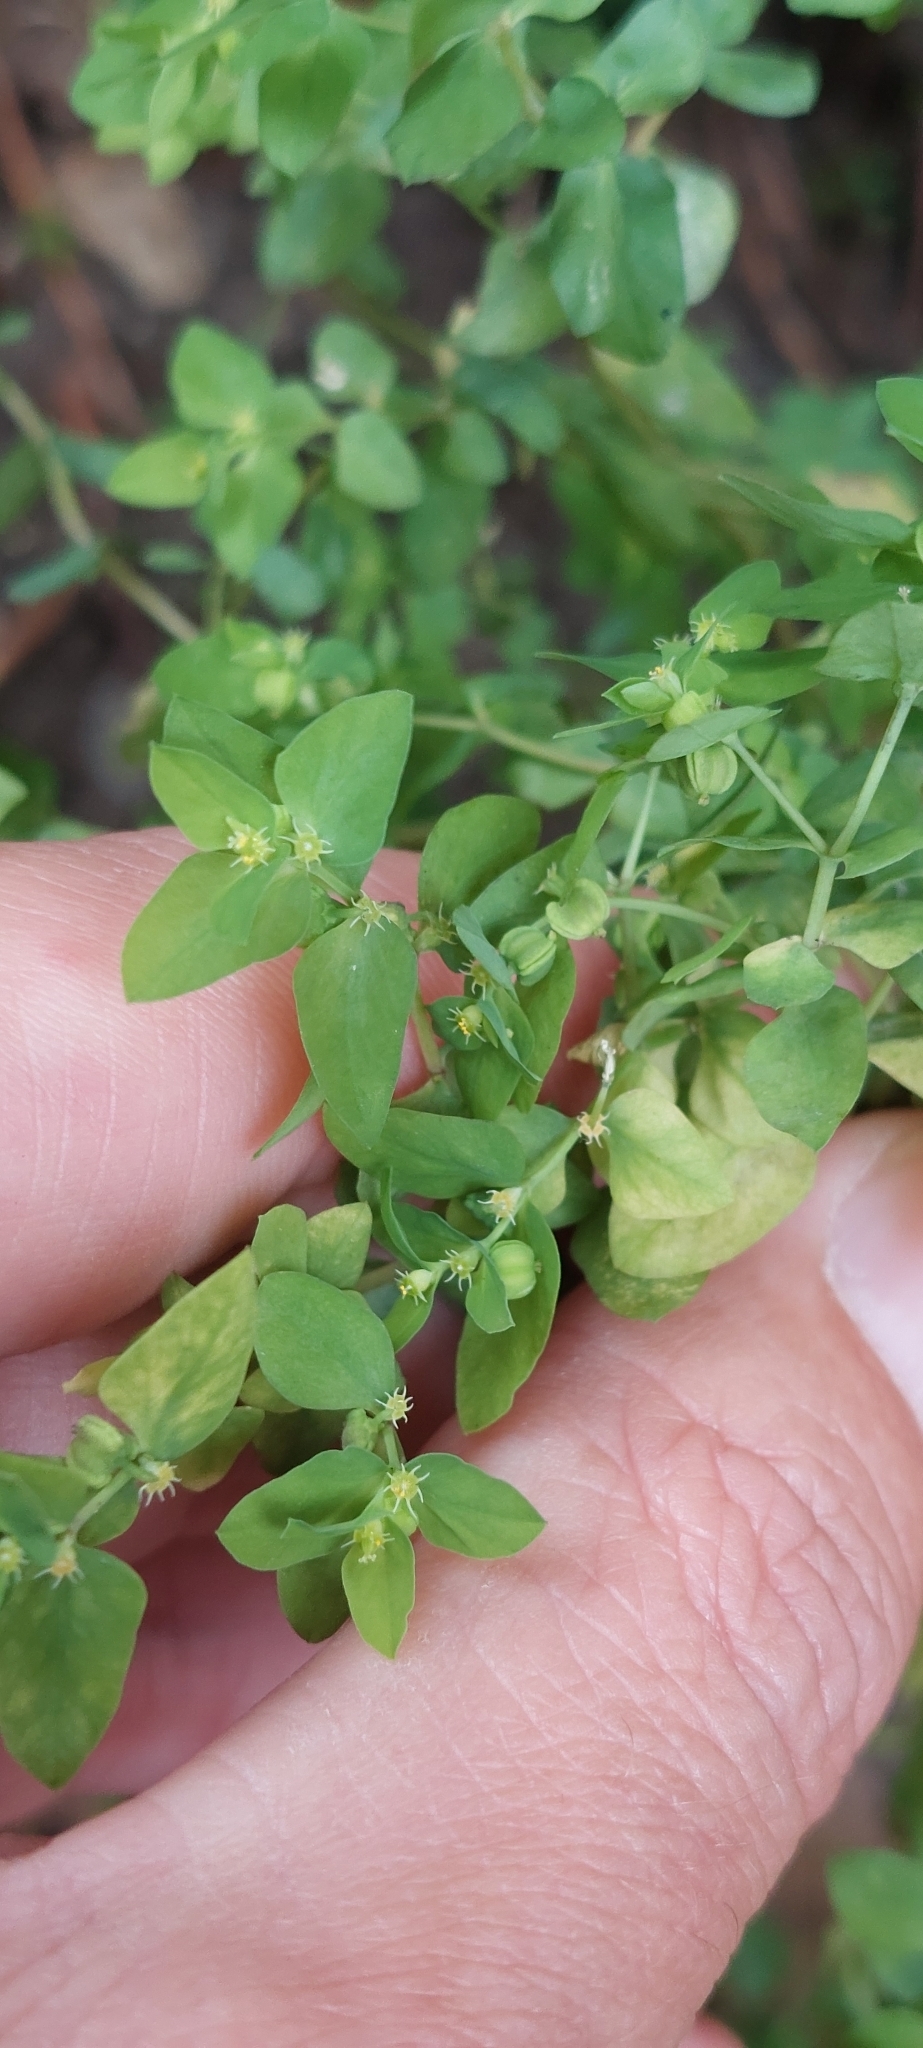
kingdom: Plantae
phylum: Tracheophyta
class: Magnoliopsida
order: Malpighiales
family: Euphorbiaceae
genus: Euphorbia
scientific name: Euphorbia peplus
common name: Petty spurge
